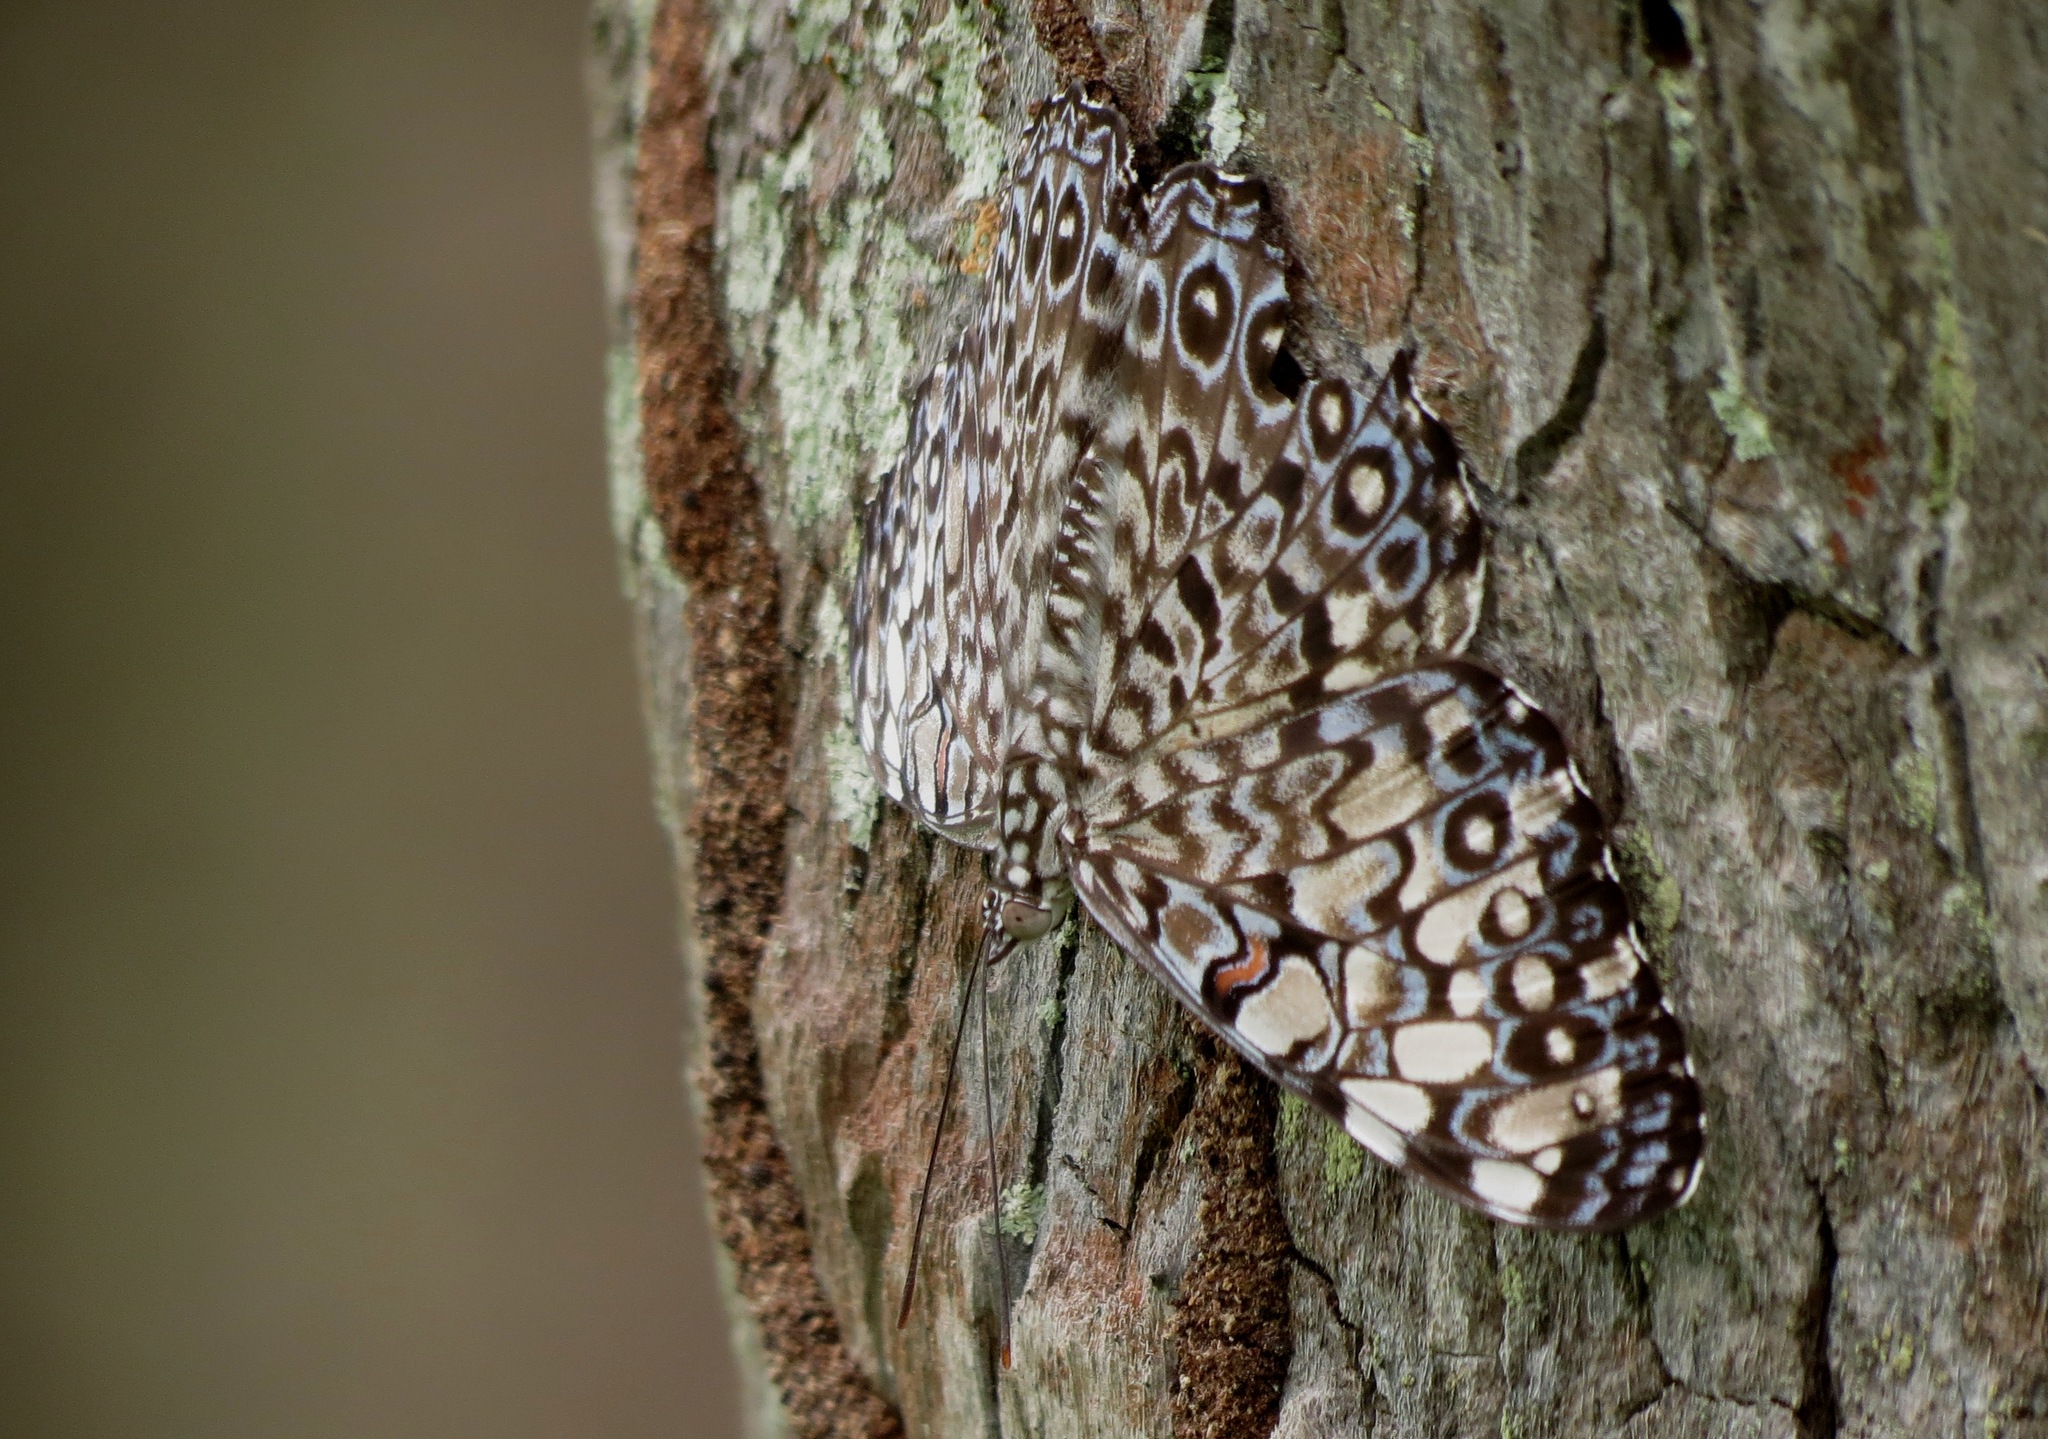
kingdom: Animalia
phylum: Arthropoda
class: Insecta
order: Lepidoptera
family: Nymphalidae
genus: Hamadryas
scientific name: Hamadryas feronia
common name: Variable cracker
